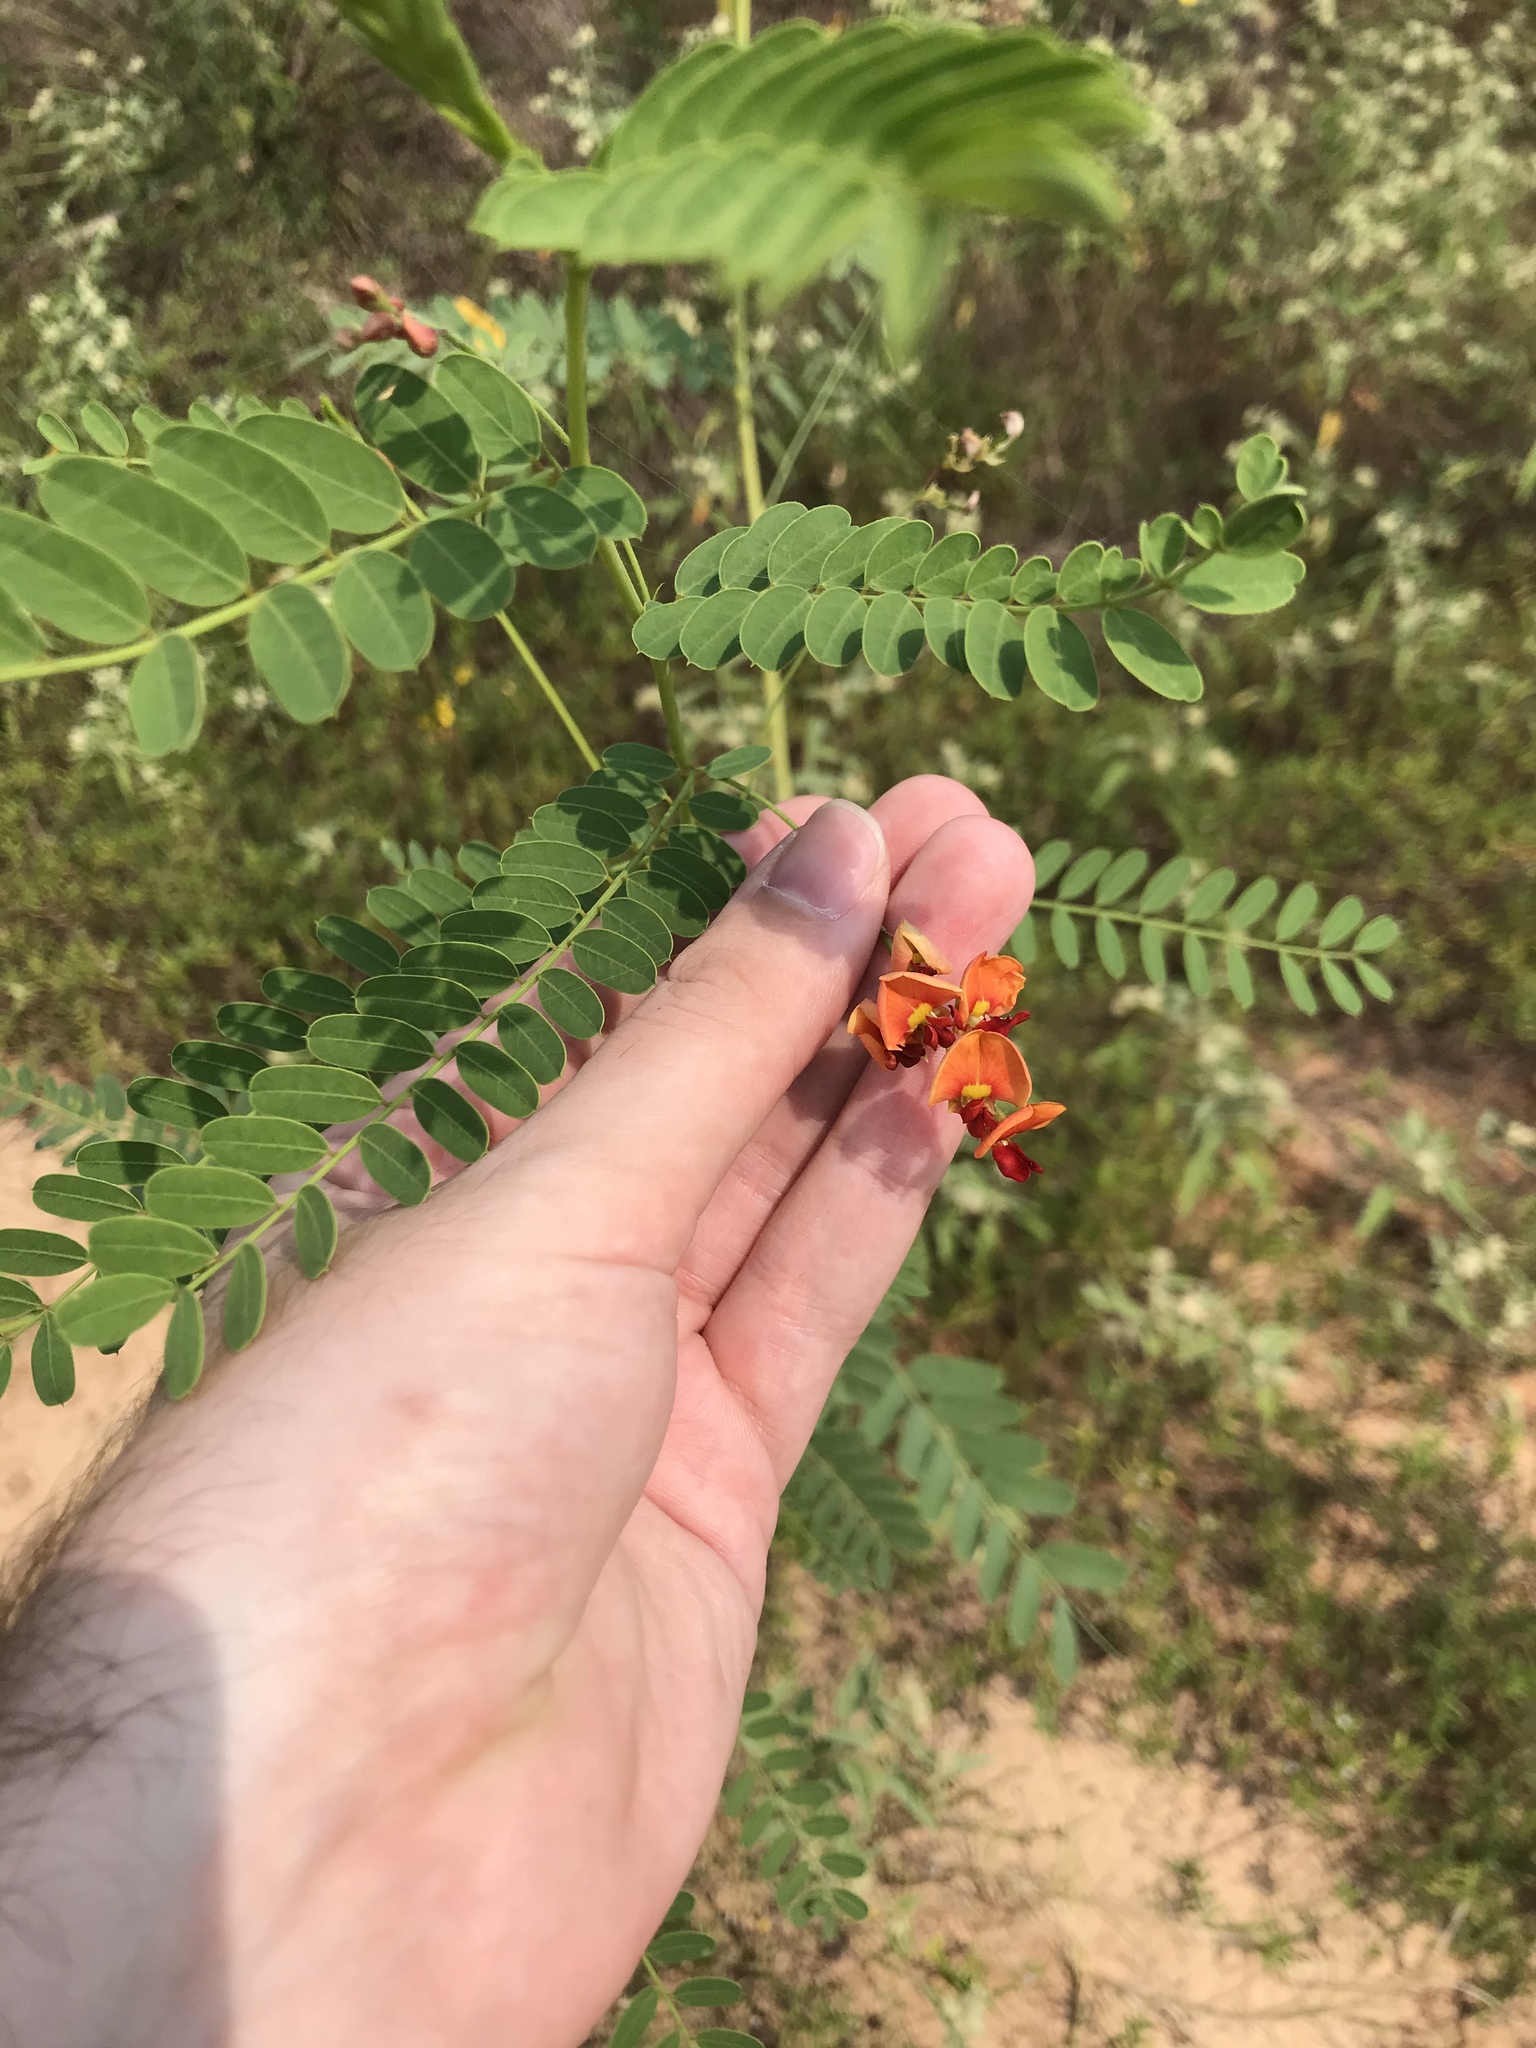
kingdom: Plantae
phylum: Tracheophyta
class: Magnoliopsida
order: Fabales
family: Fabaceae
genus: Sesbania
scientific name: Sesbania vesicaria
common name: Bagpod
